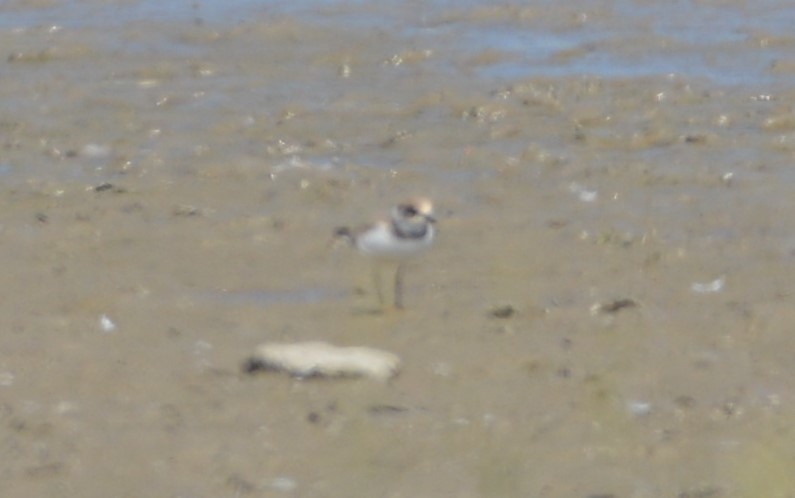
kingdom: Animalia
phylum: Chordata
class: Aves
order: Charadriiformes
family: Charadriidae
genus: Charadrius
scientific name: Charadrius dubius
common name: Little ringed plover
